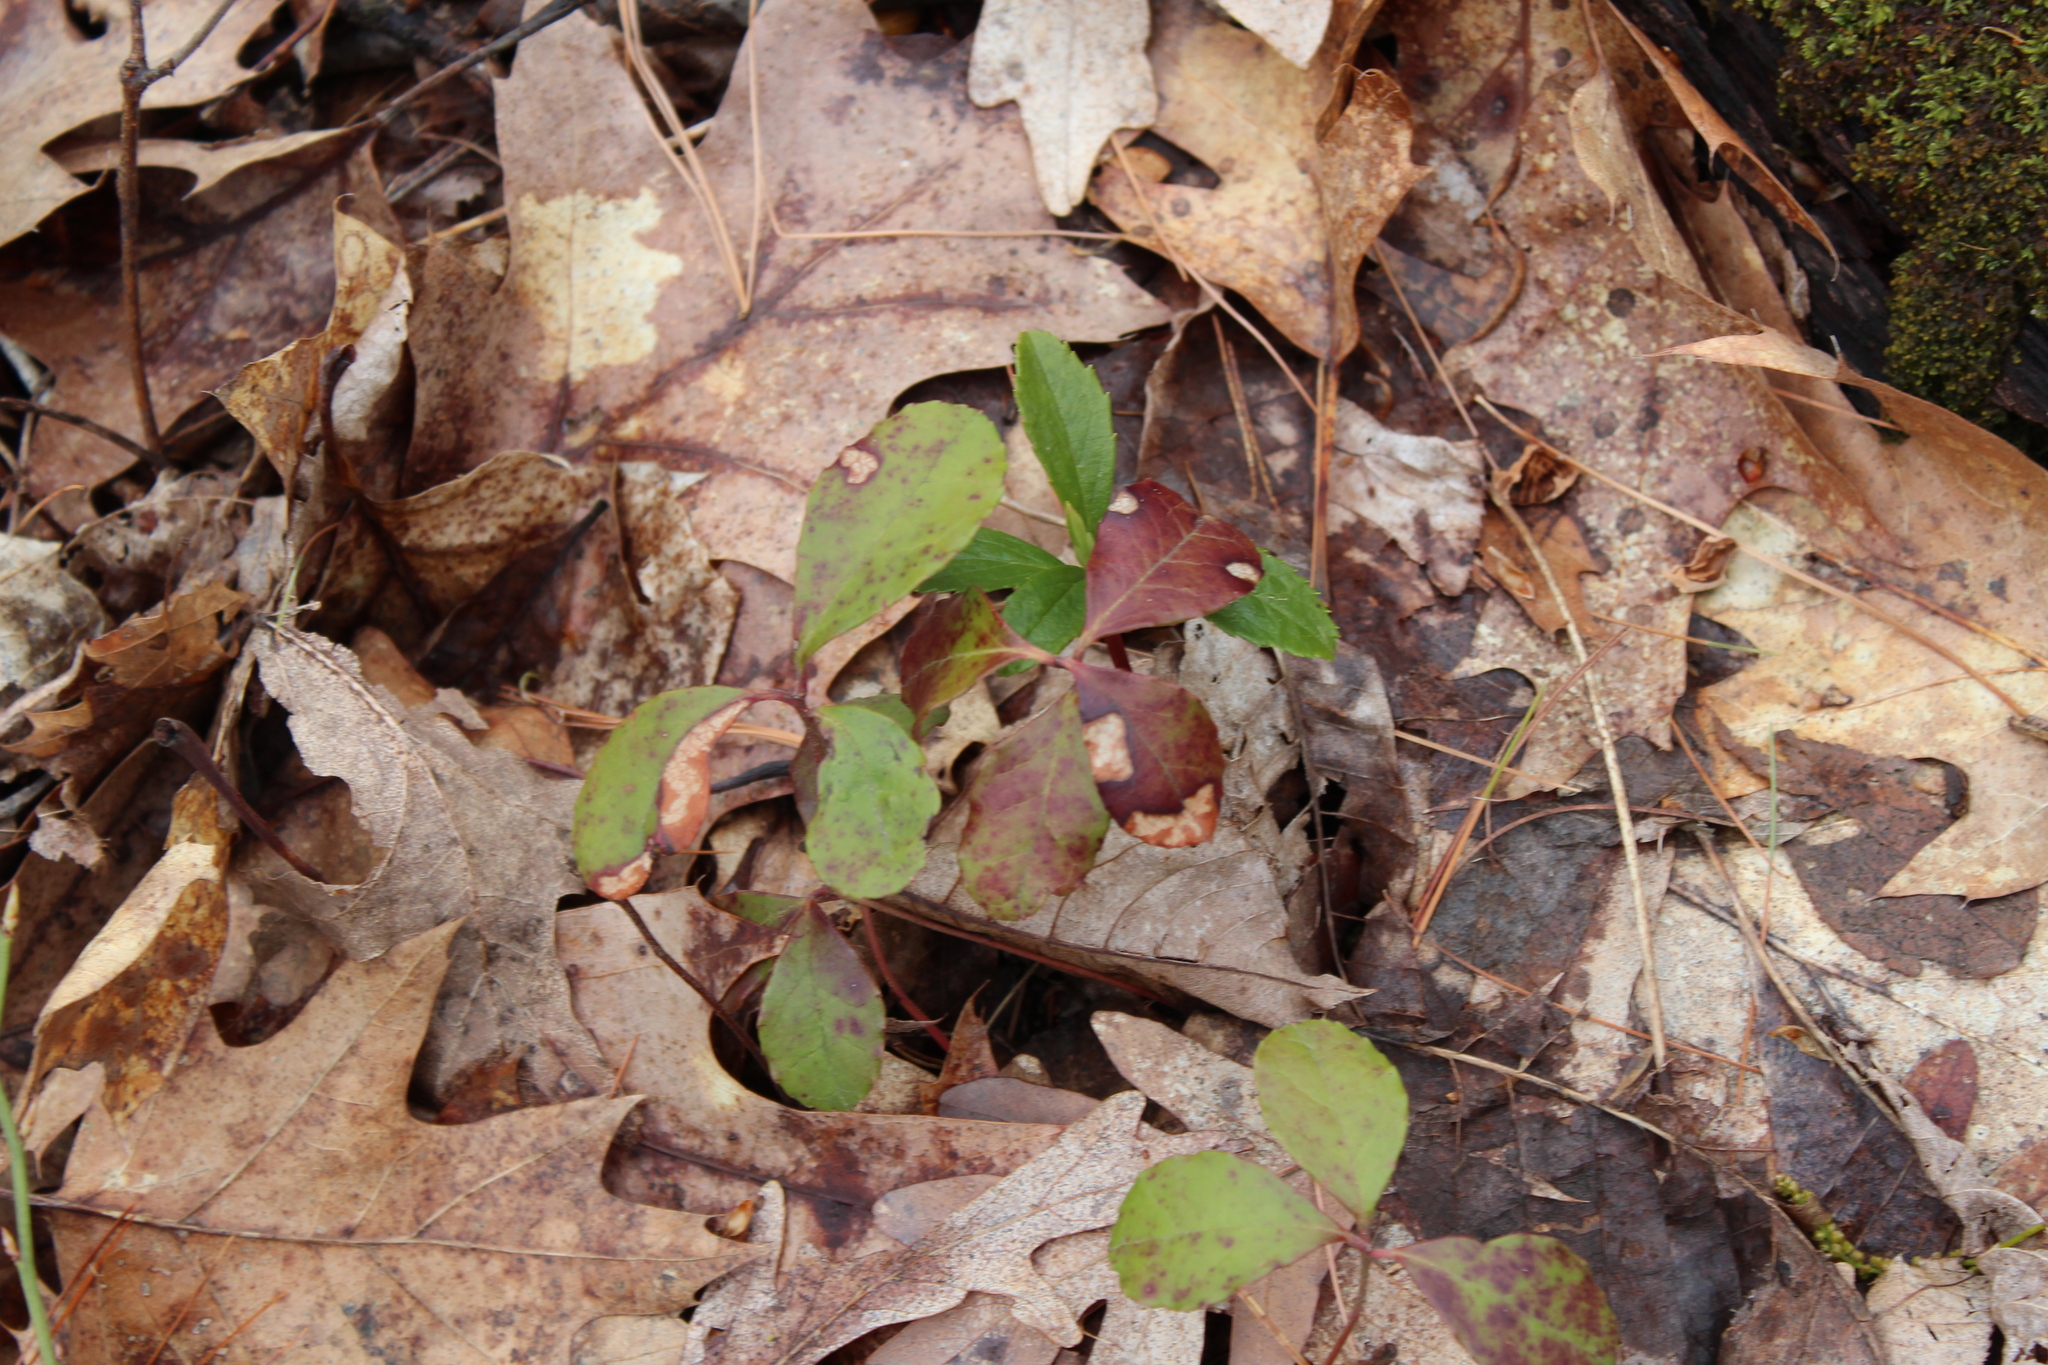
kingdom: Plantae
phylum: Tracheophyta
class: Magnoliopsida
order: Ericales
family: Ericaceae
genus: Gaultheria
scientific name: Gaultheria procumbens
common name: Checkerberry
